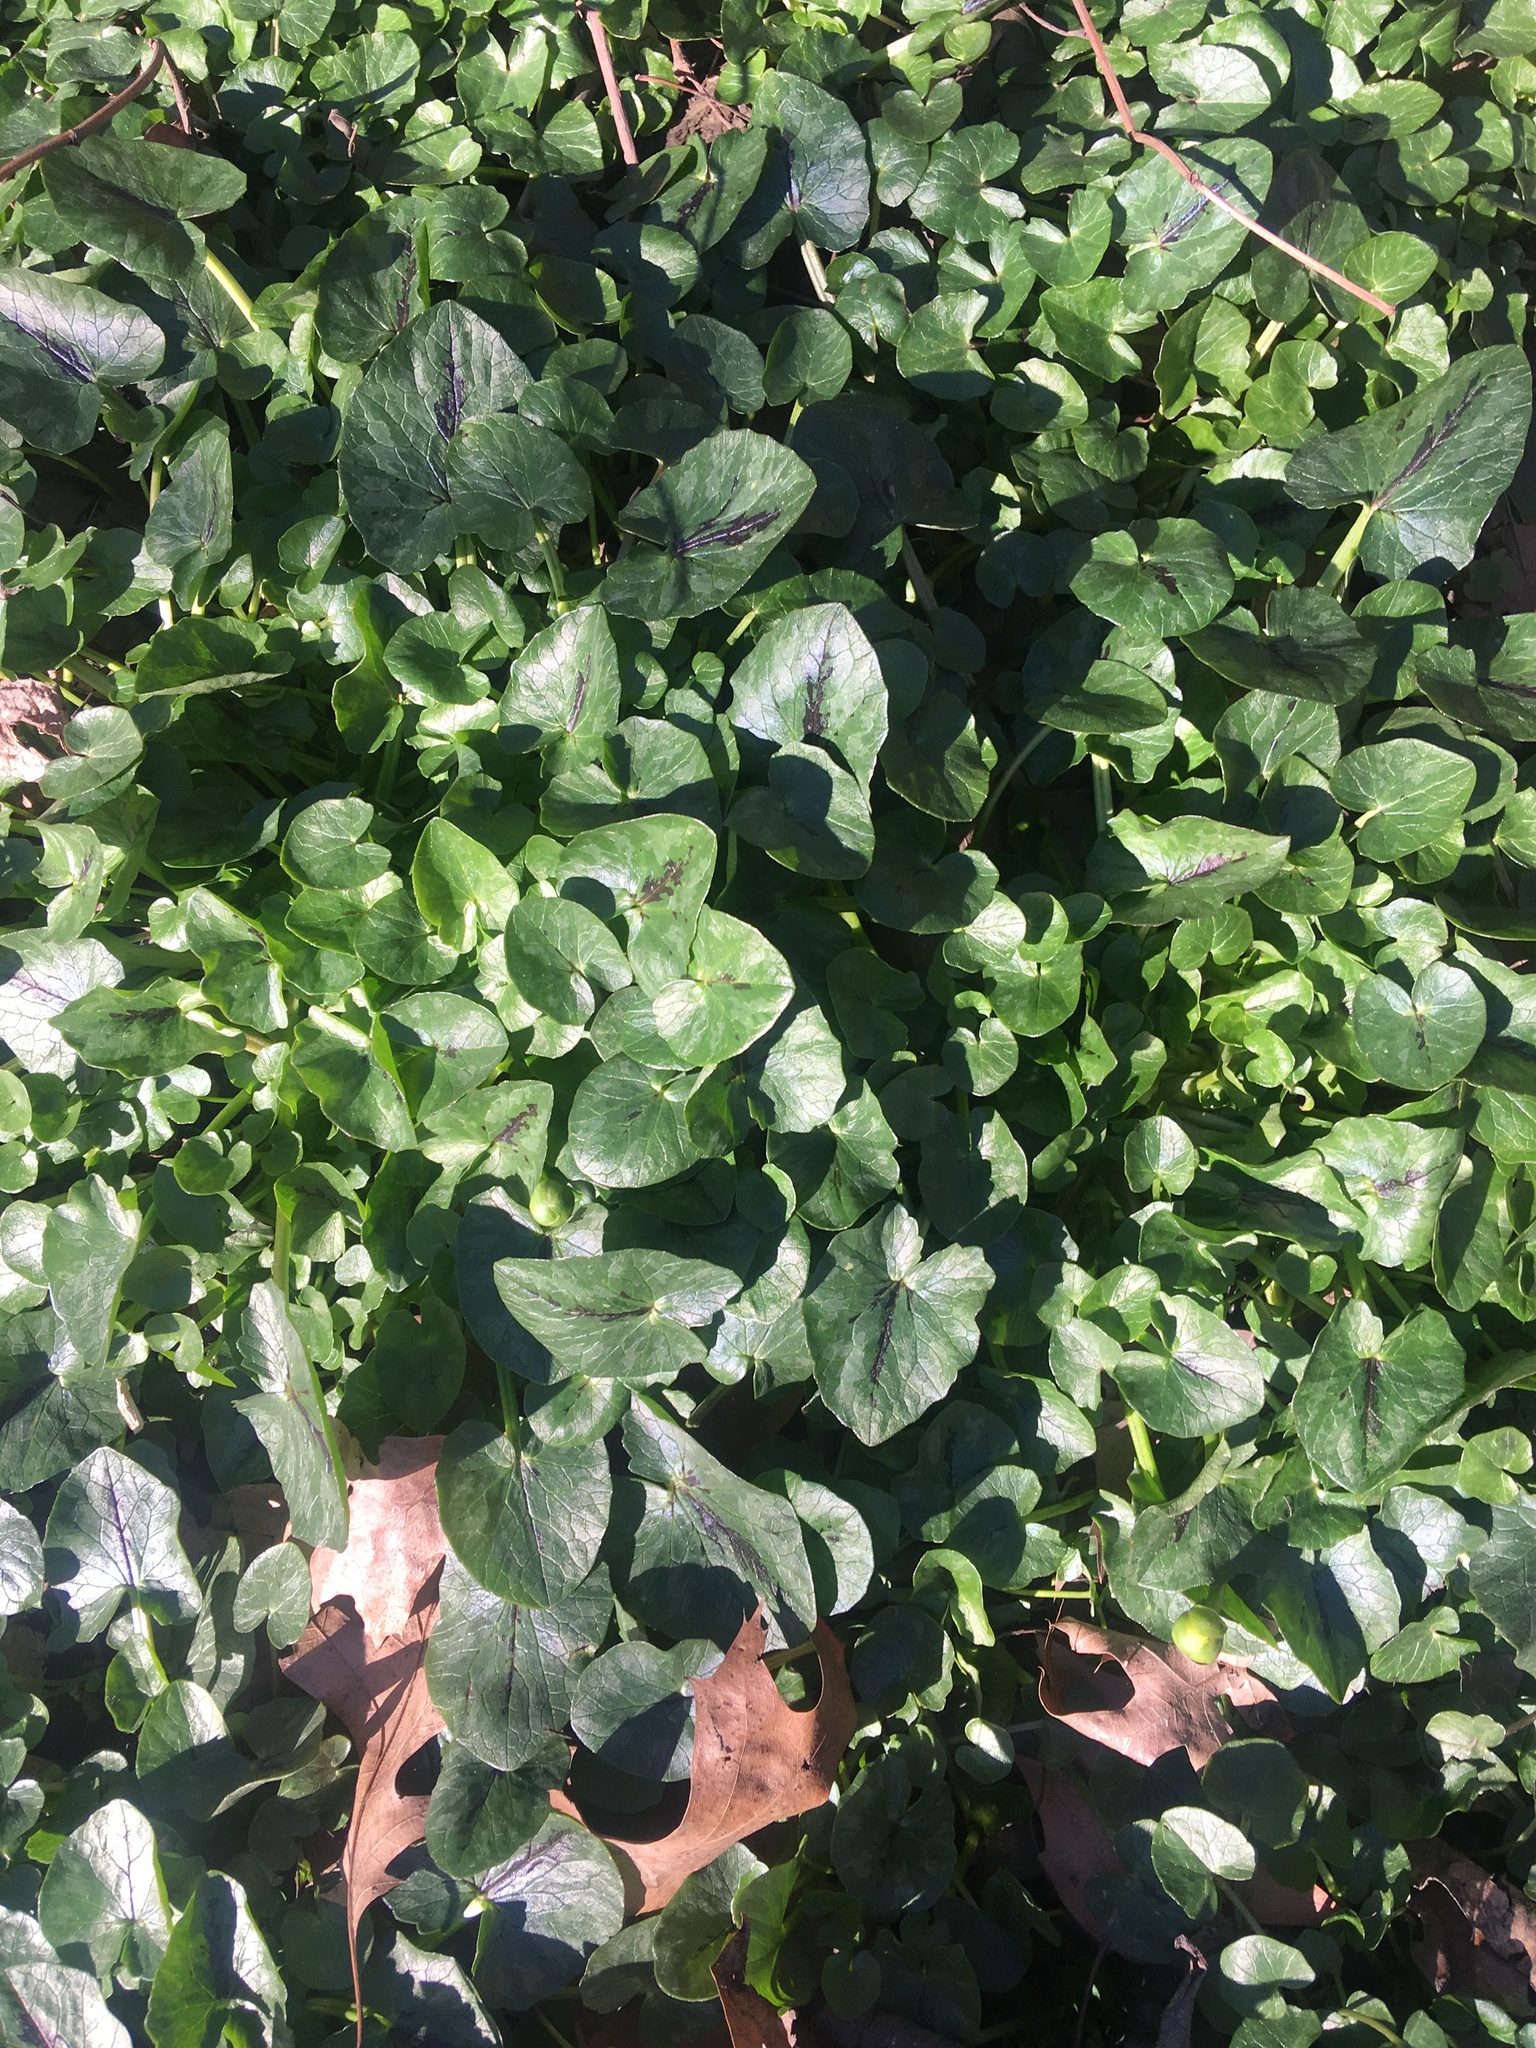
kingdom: Plantae
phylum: Tracheophyta
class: Magnoliopsida
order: Ranunculales
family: Ranunculaceae
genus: Ficaria
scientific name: Ficaria verna
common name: Lesser celandine
